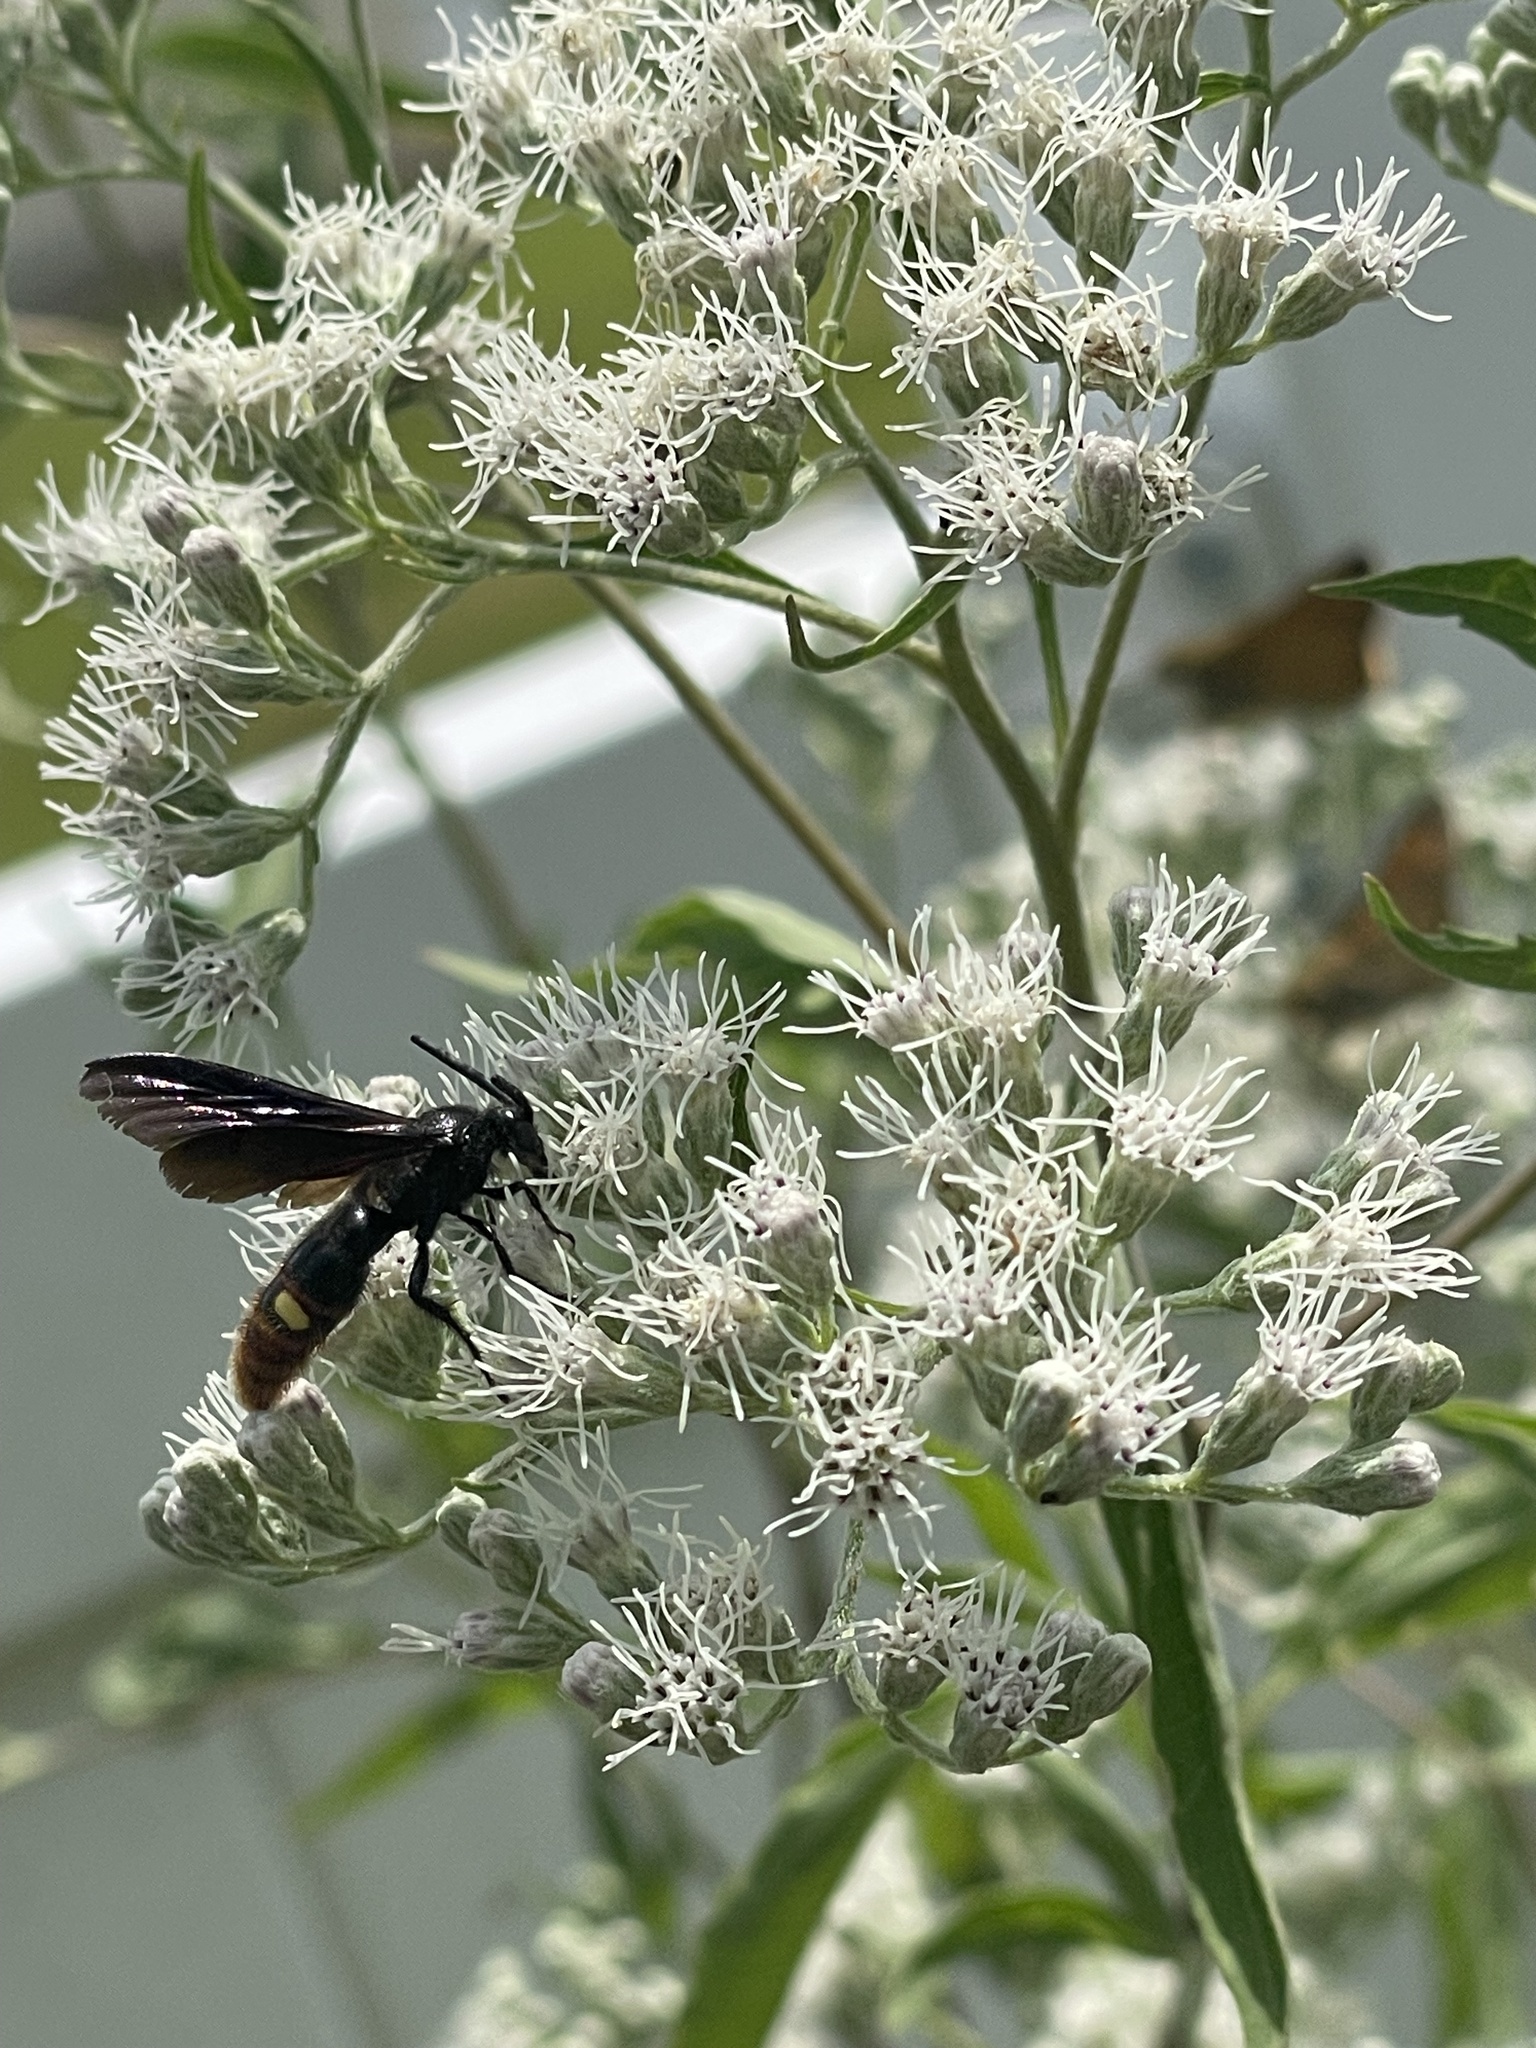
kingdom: Animalia
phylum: Arthropoda
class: Insecta
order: Hymenoptera
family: Scoliidae
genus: Scolia
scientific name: Scolia dubia
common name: Blue-winged scoliid wasp
